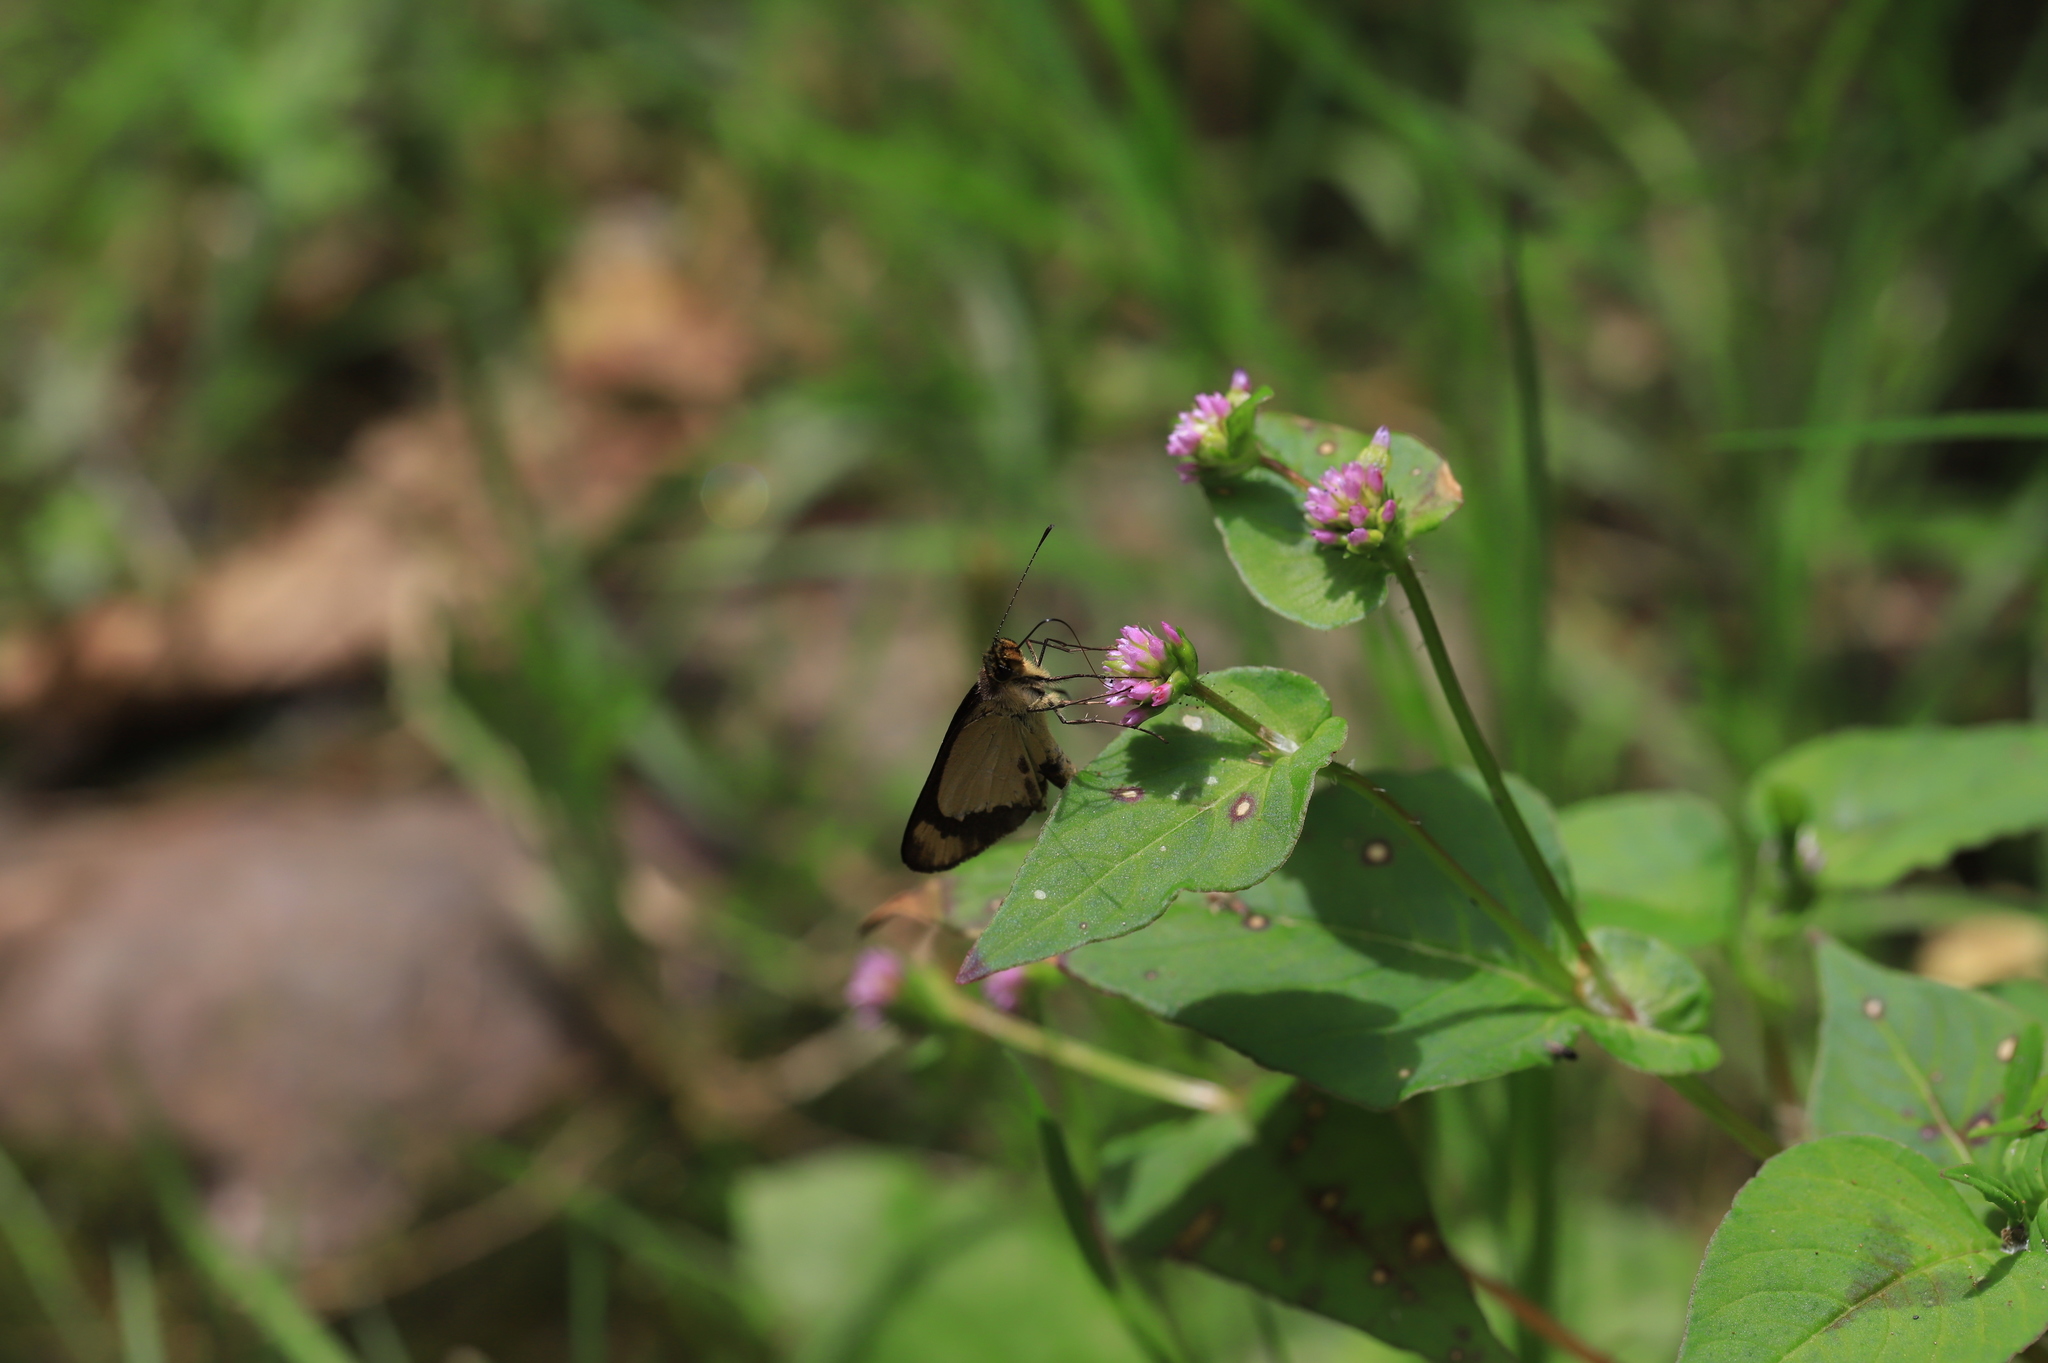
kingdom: Animalia
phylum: Arthropoda
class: Insecta
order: Lepidoptera
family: Hesperiidae
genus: Falga
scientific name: Falga jeconia
